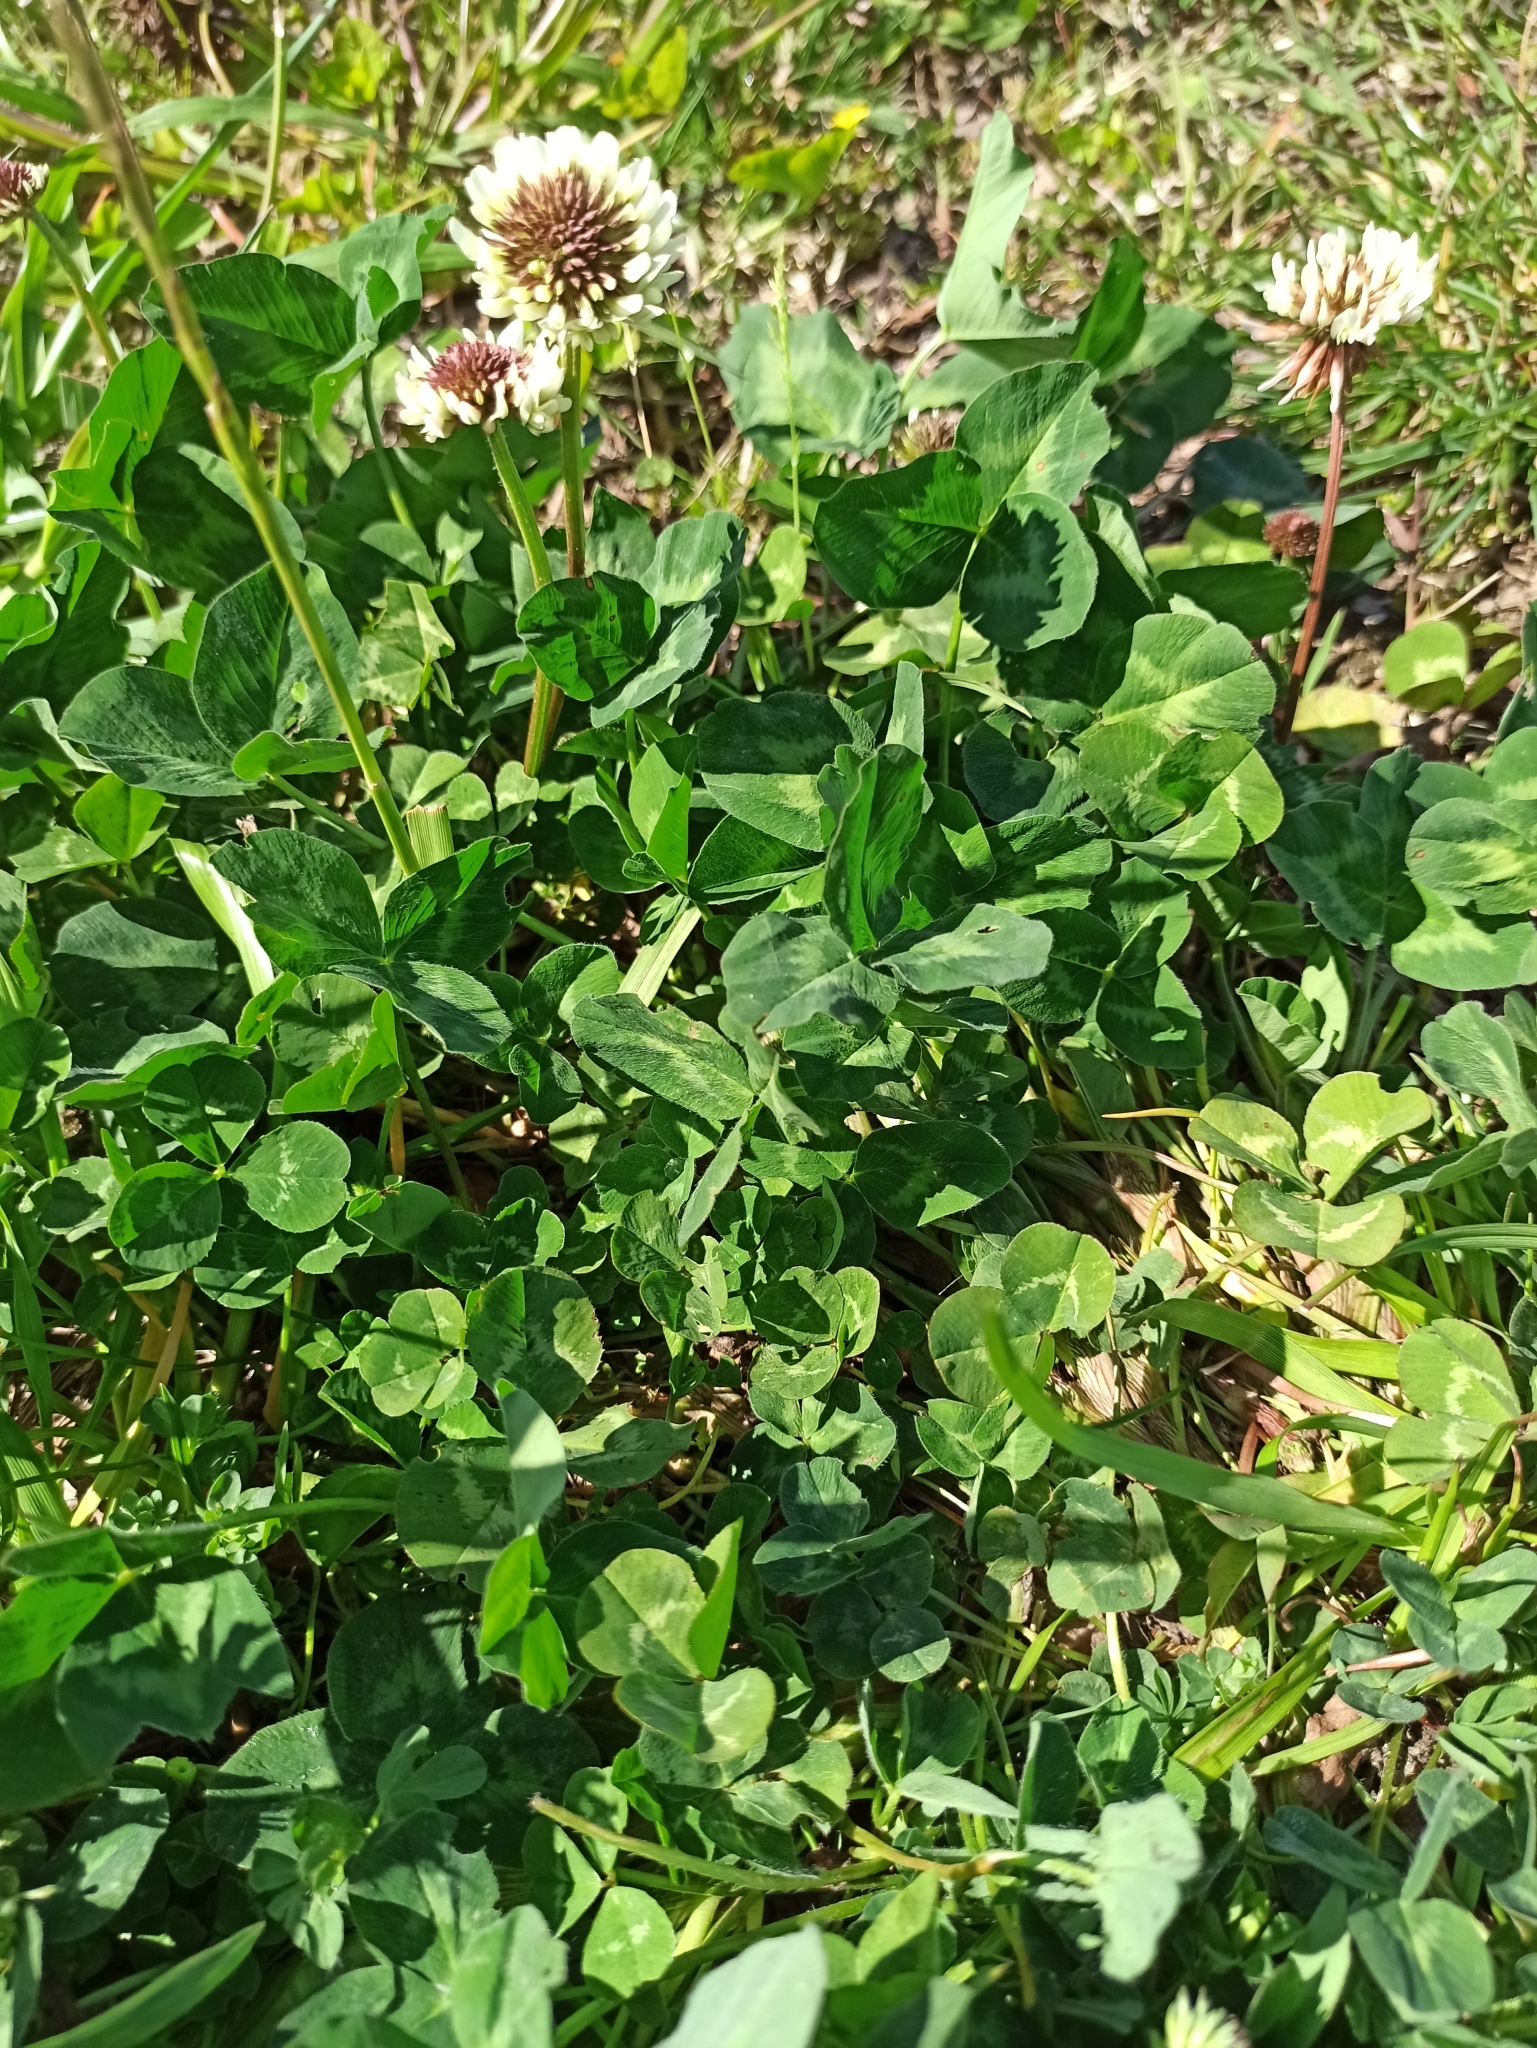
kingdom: Plantae
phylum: Tracheophyta
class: Magnoliopsida
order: Fabales
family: Fabaceae
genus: Trifolium
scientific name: Trifolium repens
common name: White clover
